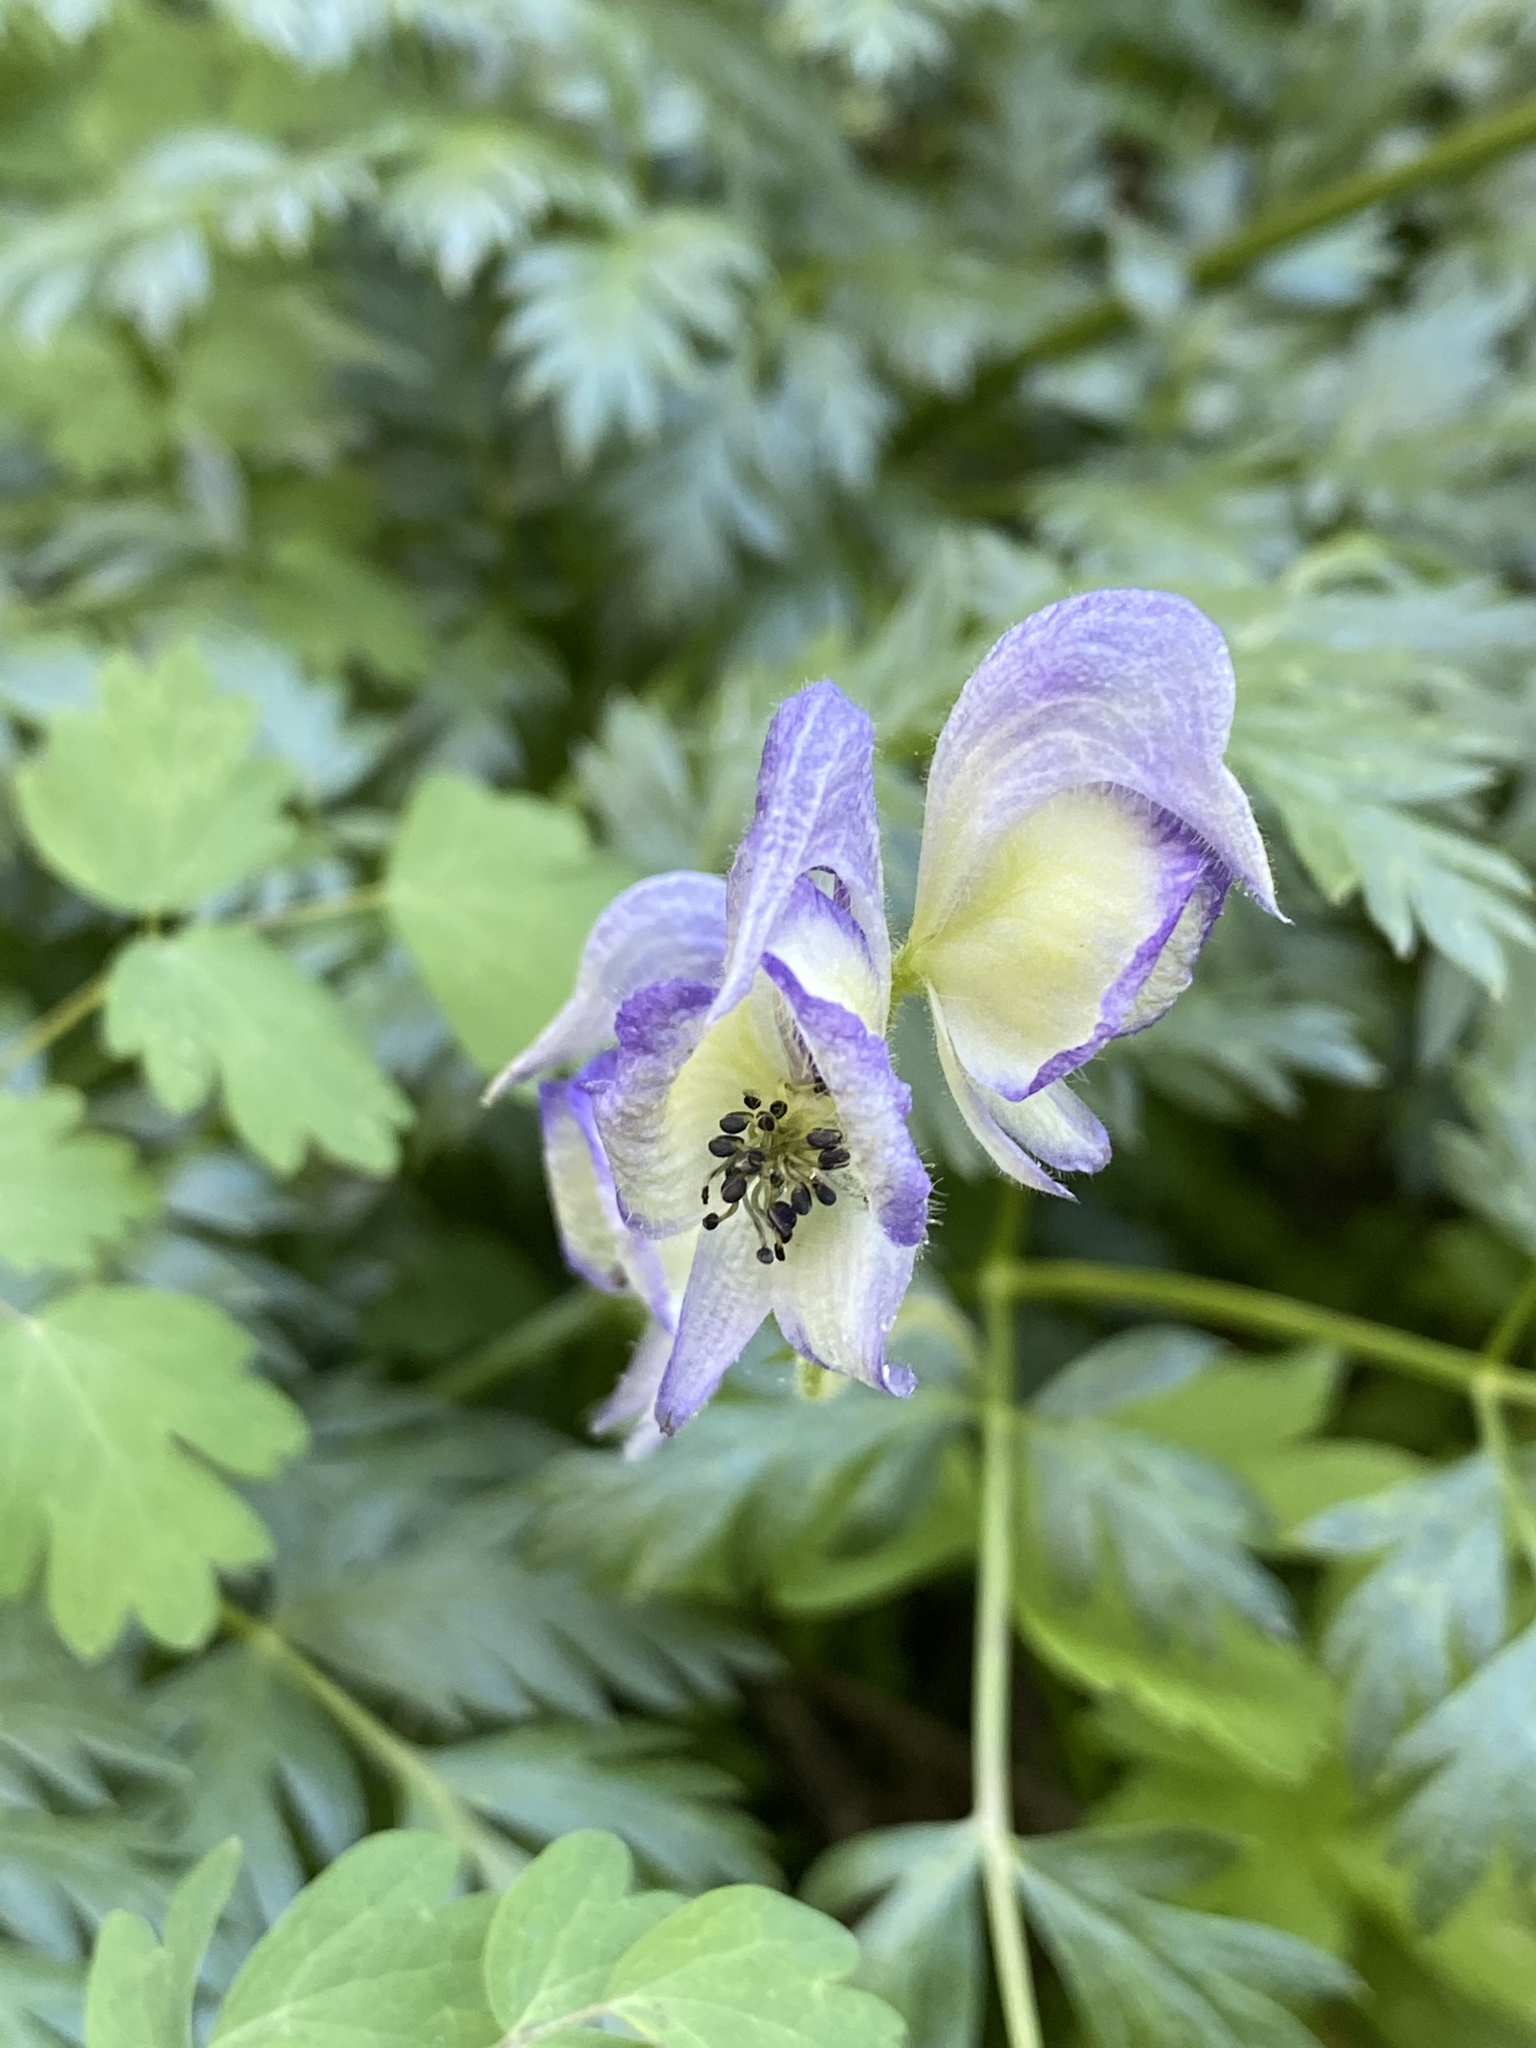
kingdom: Plantae
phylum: Tracheophyta
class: Magnoliopsida
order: Ranunculales
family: Ranunculaceae
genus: Aconitum
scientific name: Aconitum columbianum
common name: Columbia aconite
